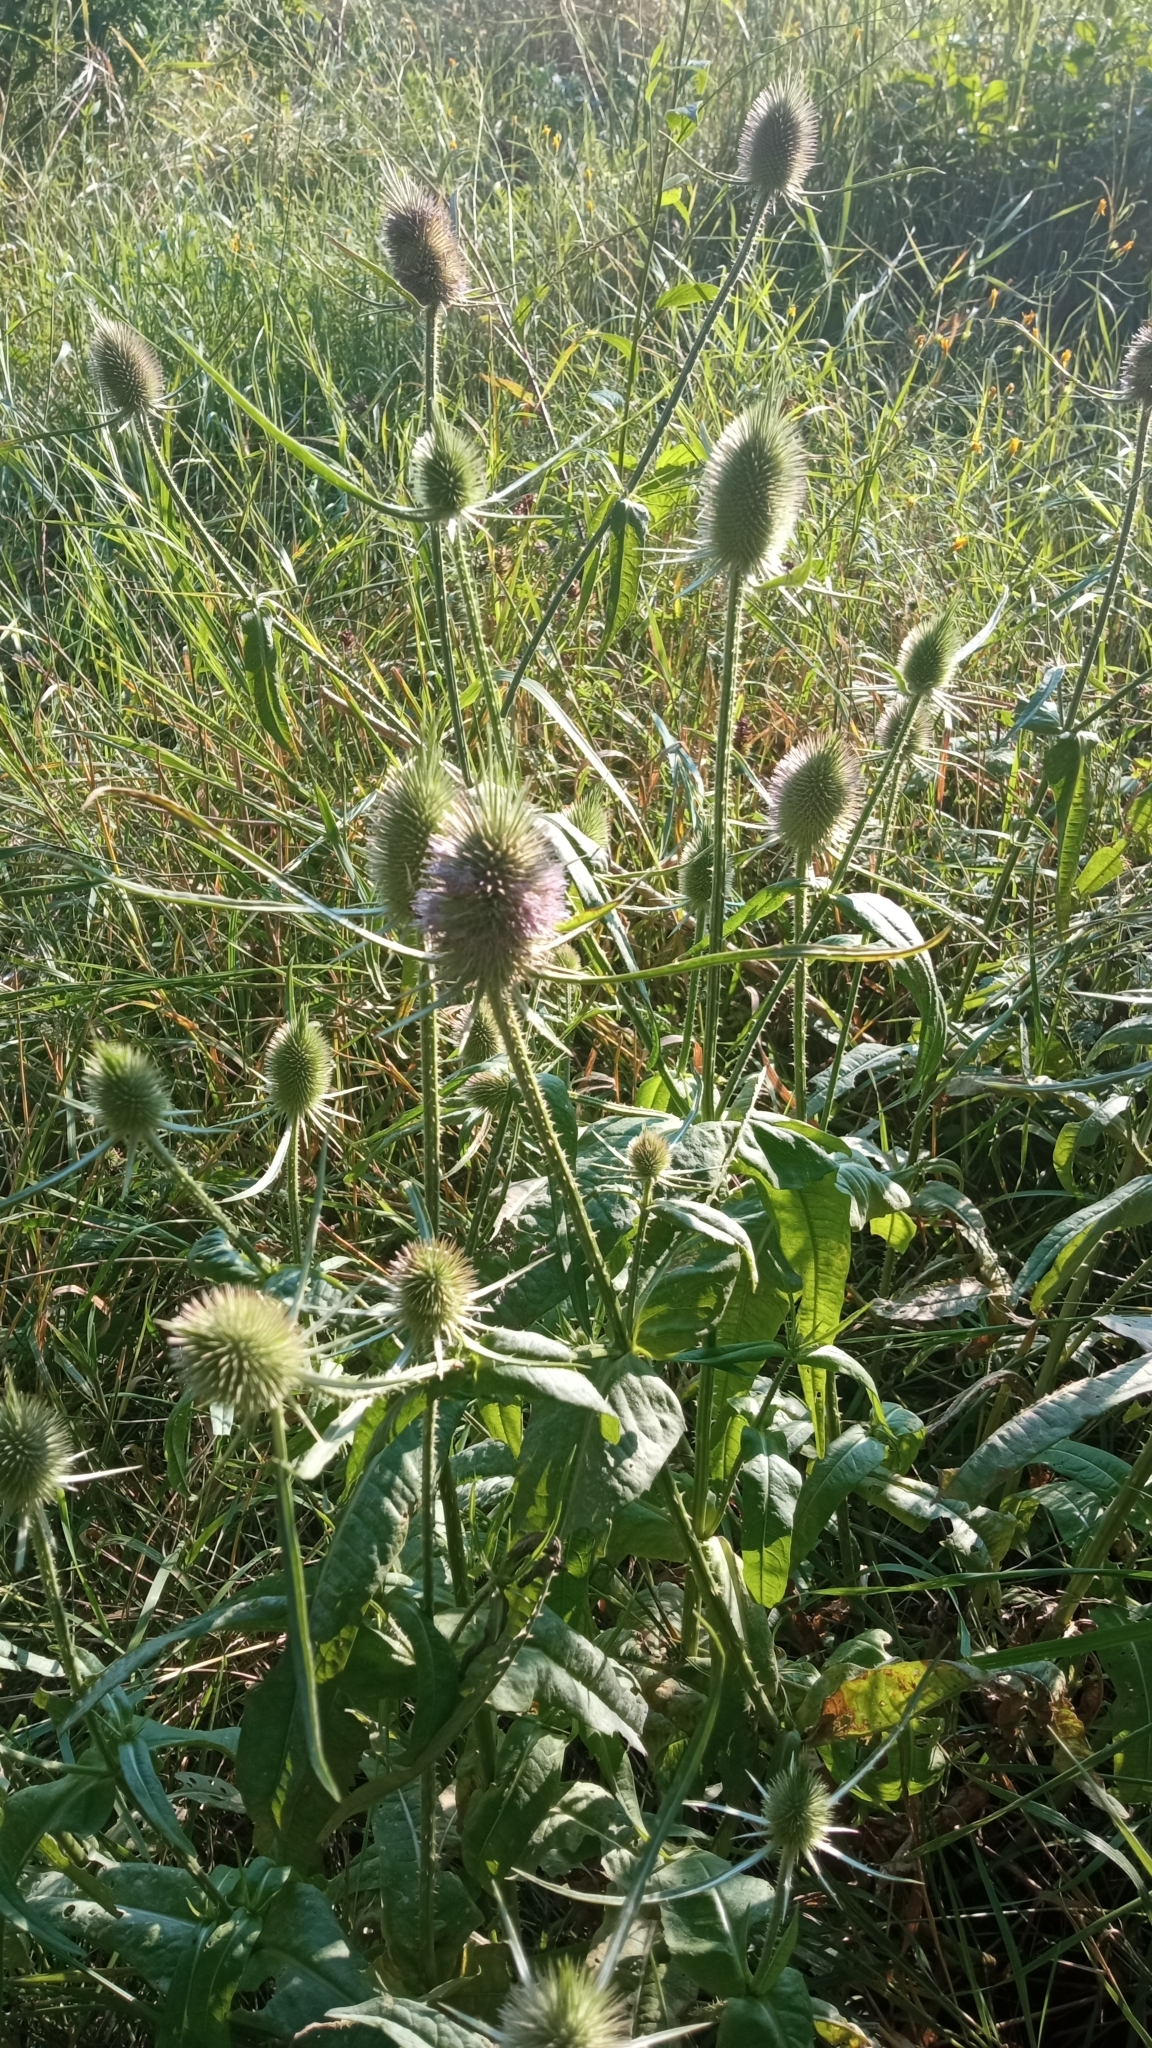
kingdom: Plantae
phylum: Tracheophyta
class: Magnoliopsida
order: Dipsacales
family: Caprifoliaceae
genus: Dipsacus
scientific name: Dipsacus fullonum
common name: Teasel
